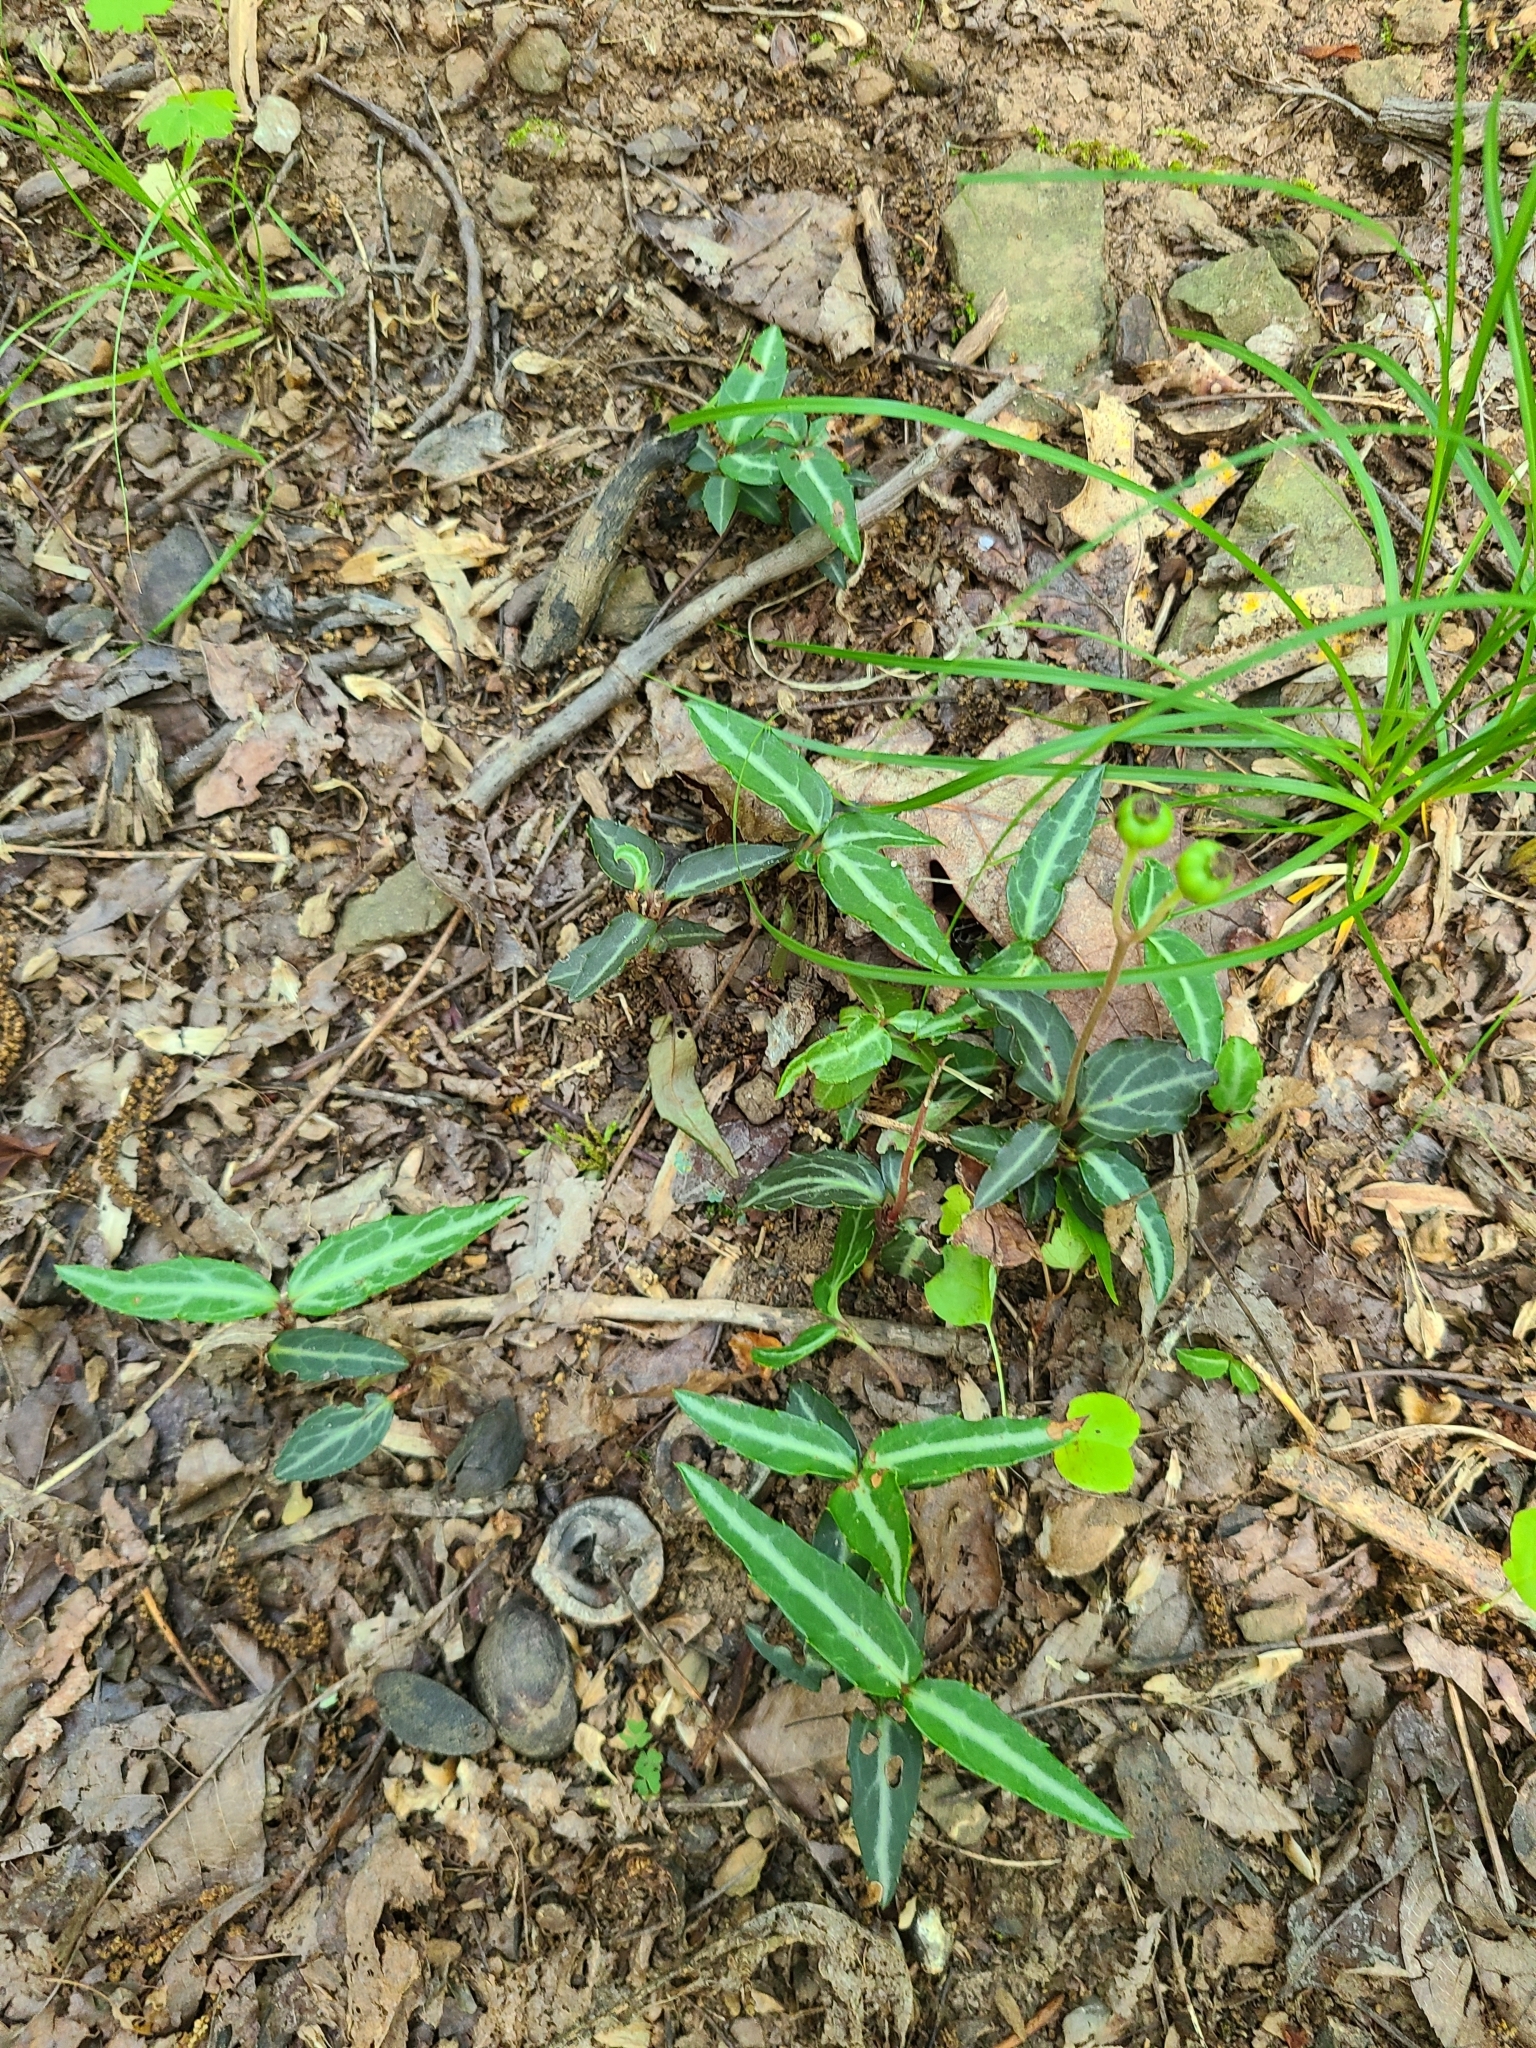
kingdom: Plantae
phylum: Tracheophyta
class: Magnoliopsida
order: Ericales
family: Ericaceae
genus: Chimaphila
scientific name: Chimaphila maculata
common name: Spotted pipsissewa
